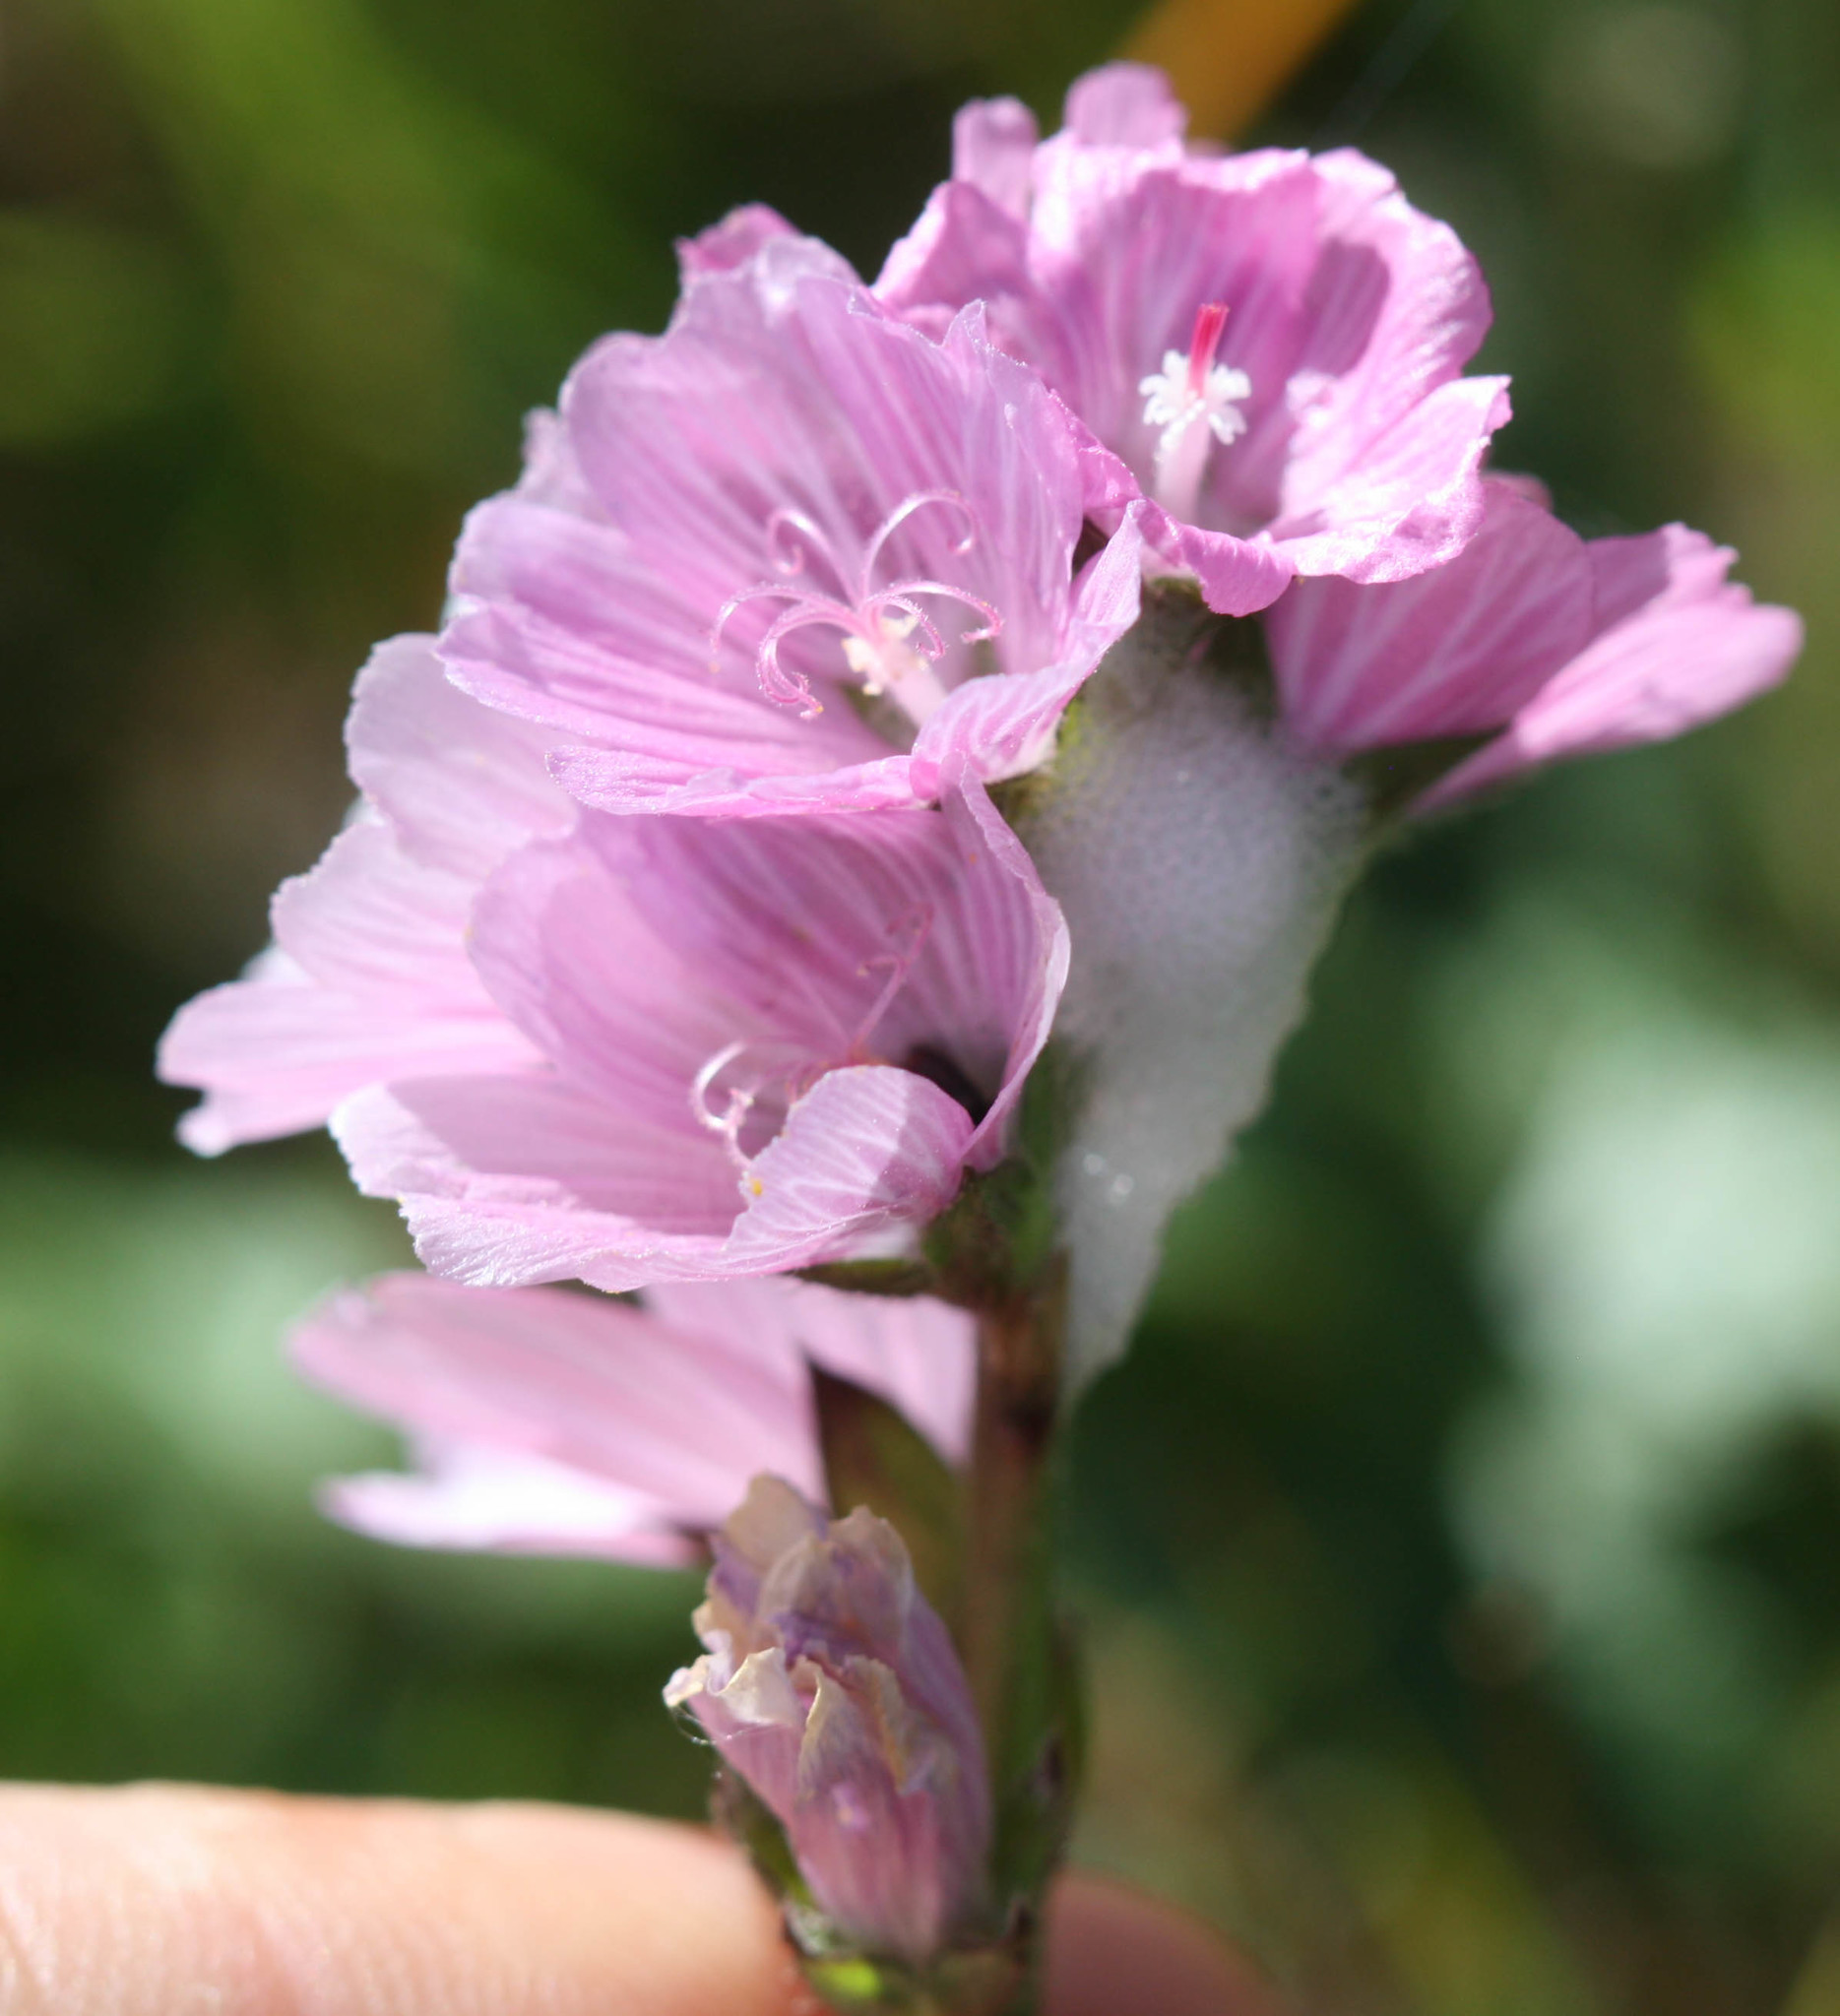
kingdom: Plantae
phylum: Tracheophyta
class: Magnoliopsida
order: Malvales
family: Malvaceae
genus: Sidalcea
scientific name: Sidalcea malviflora
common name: Greek mallow
